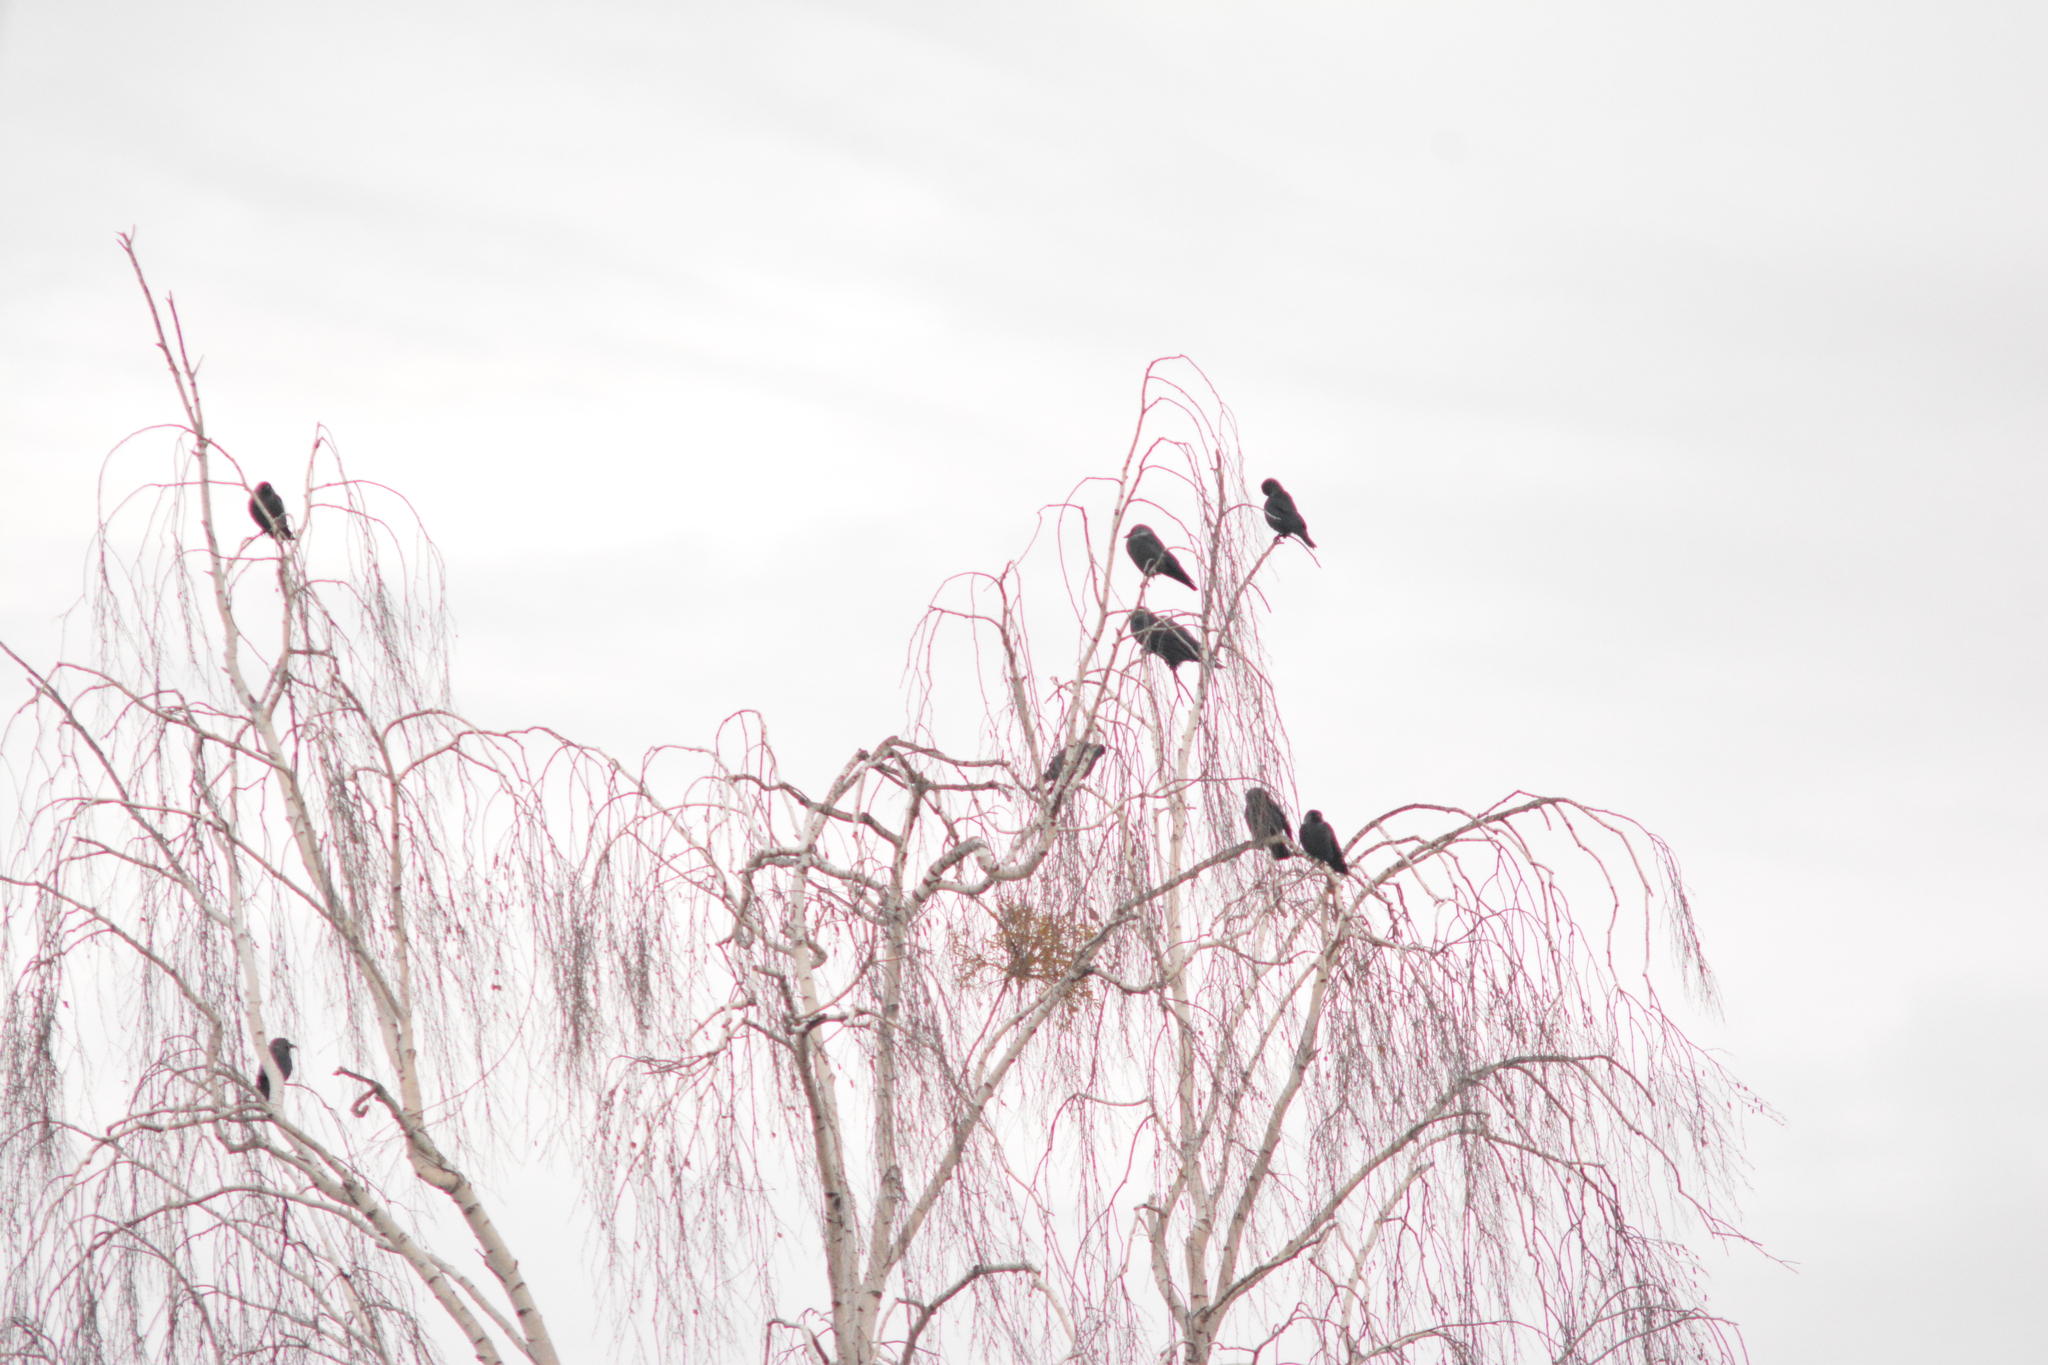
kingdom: Animalia
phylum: Chordata
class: Aves
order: Passeriformes
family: Corvidae
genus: Coloeus
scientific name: Coloeus monedula
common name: Western jackdaw
